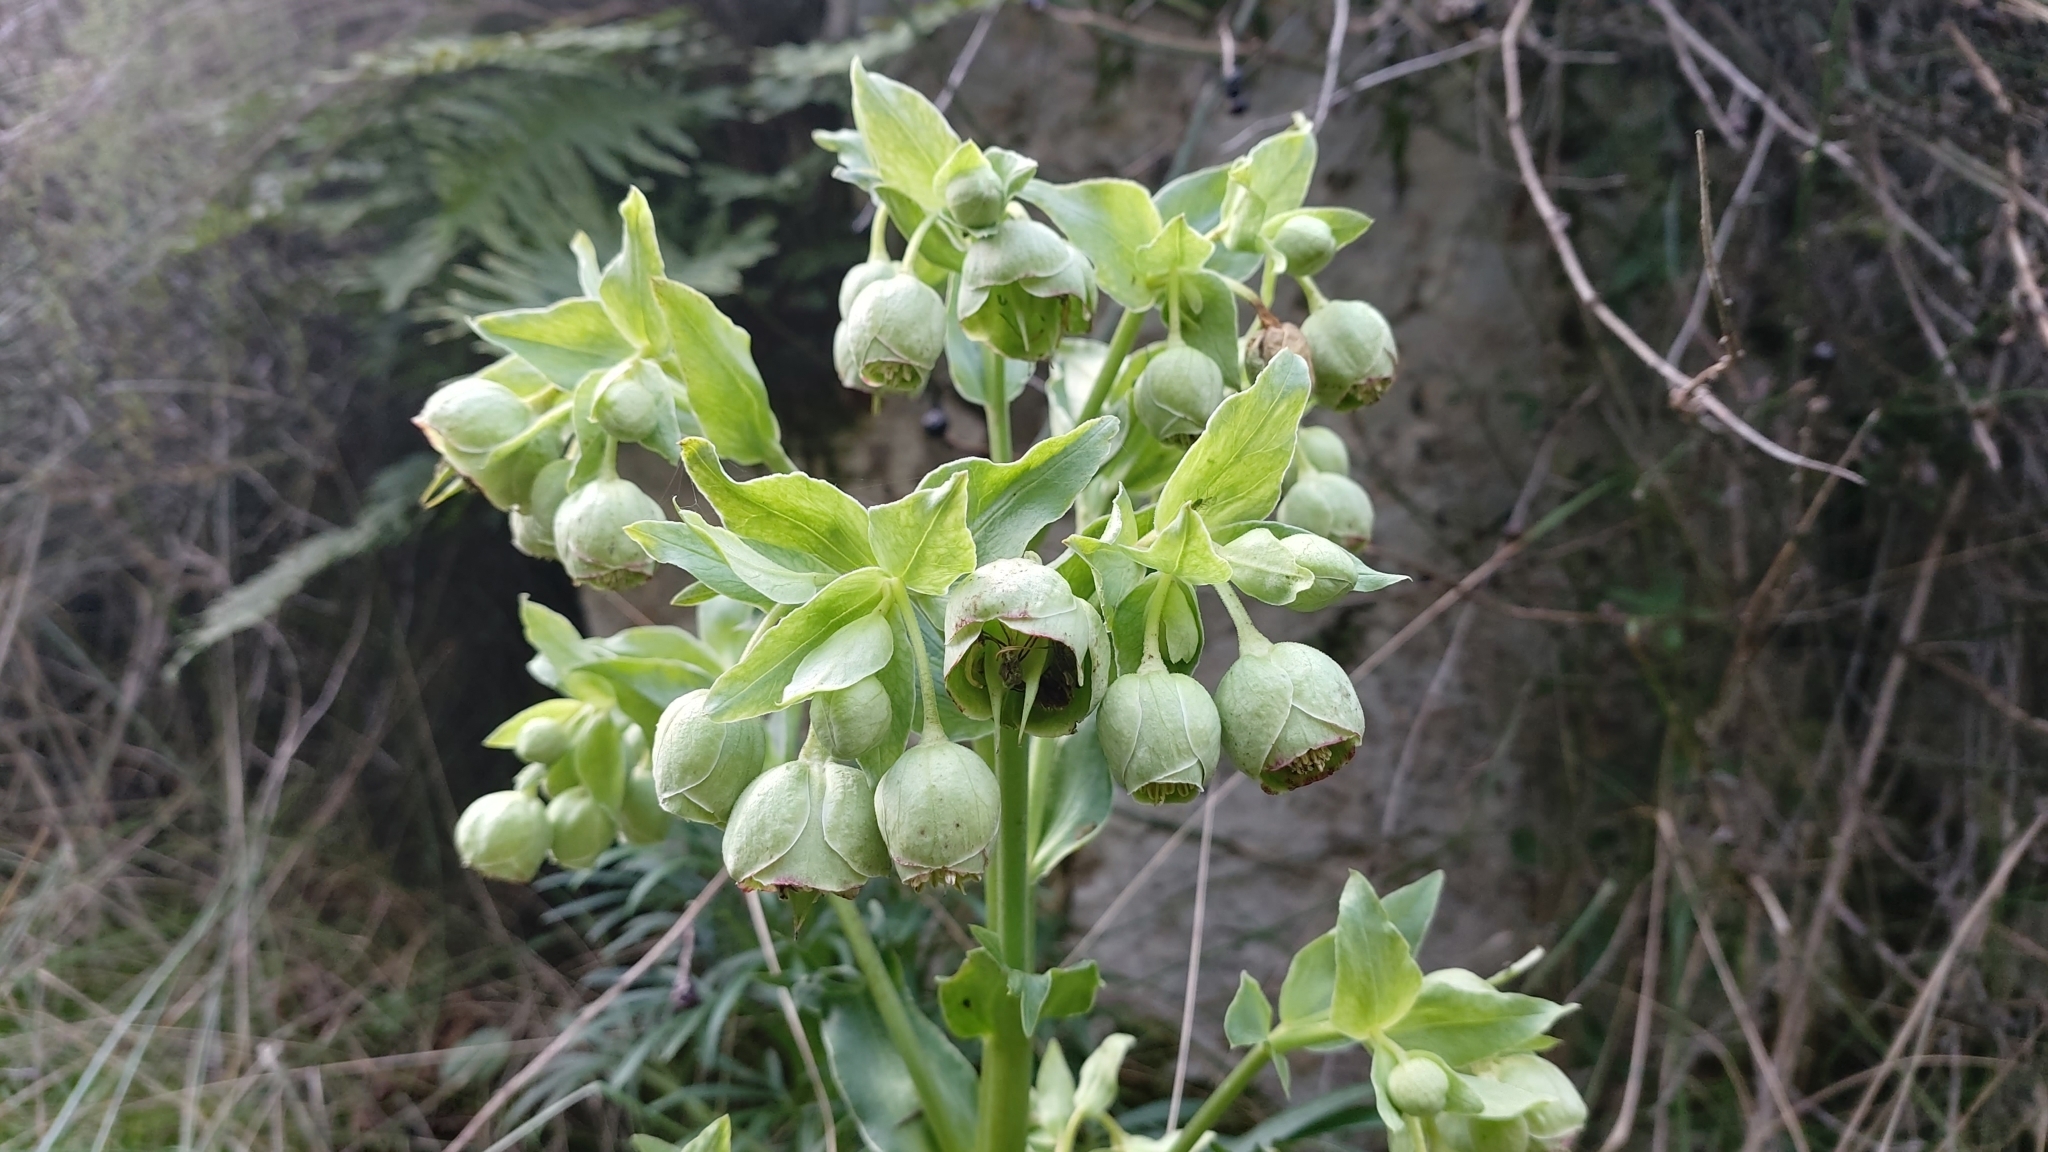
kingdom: Plantae
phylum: Tracheophyta
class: Magnoliopsida
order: Ranunculales
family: Ranunculaceae
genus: Helleborus
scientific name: Helleborus foetidus
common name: Stinking hellebore
